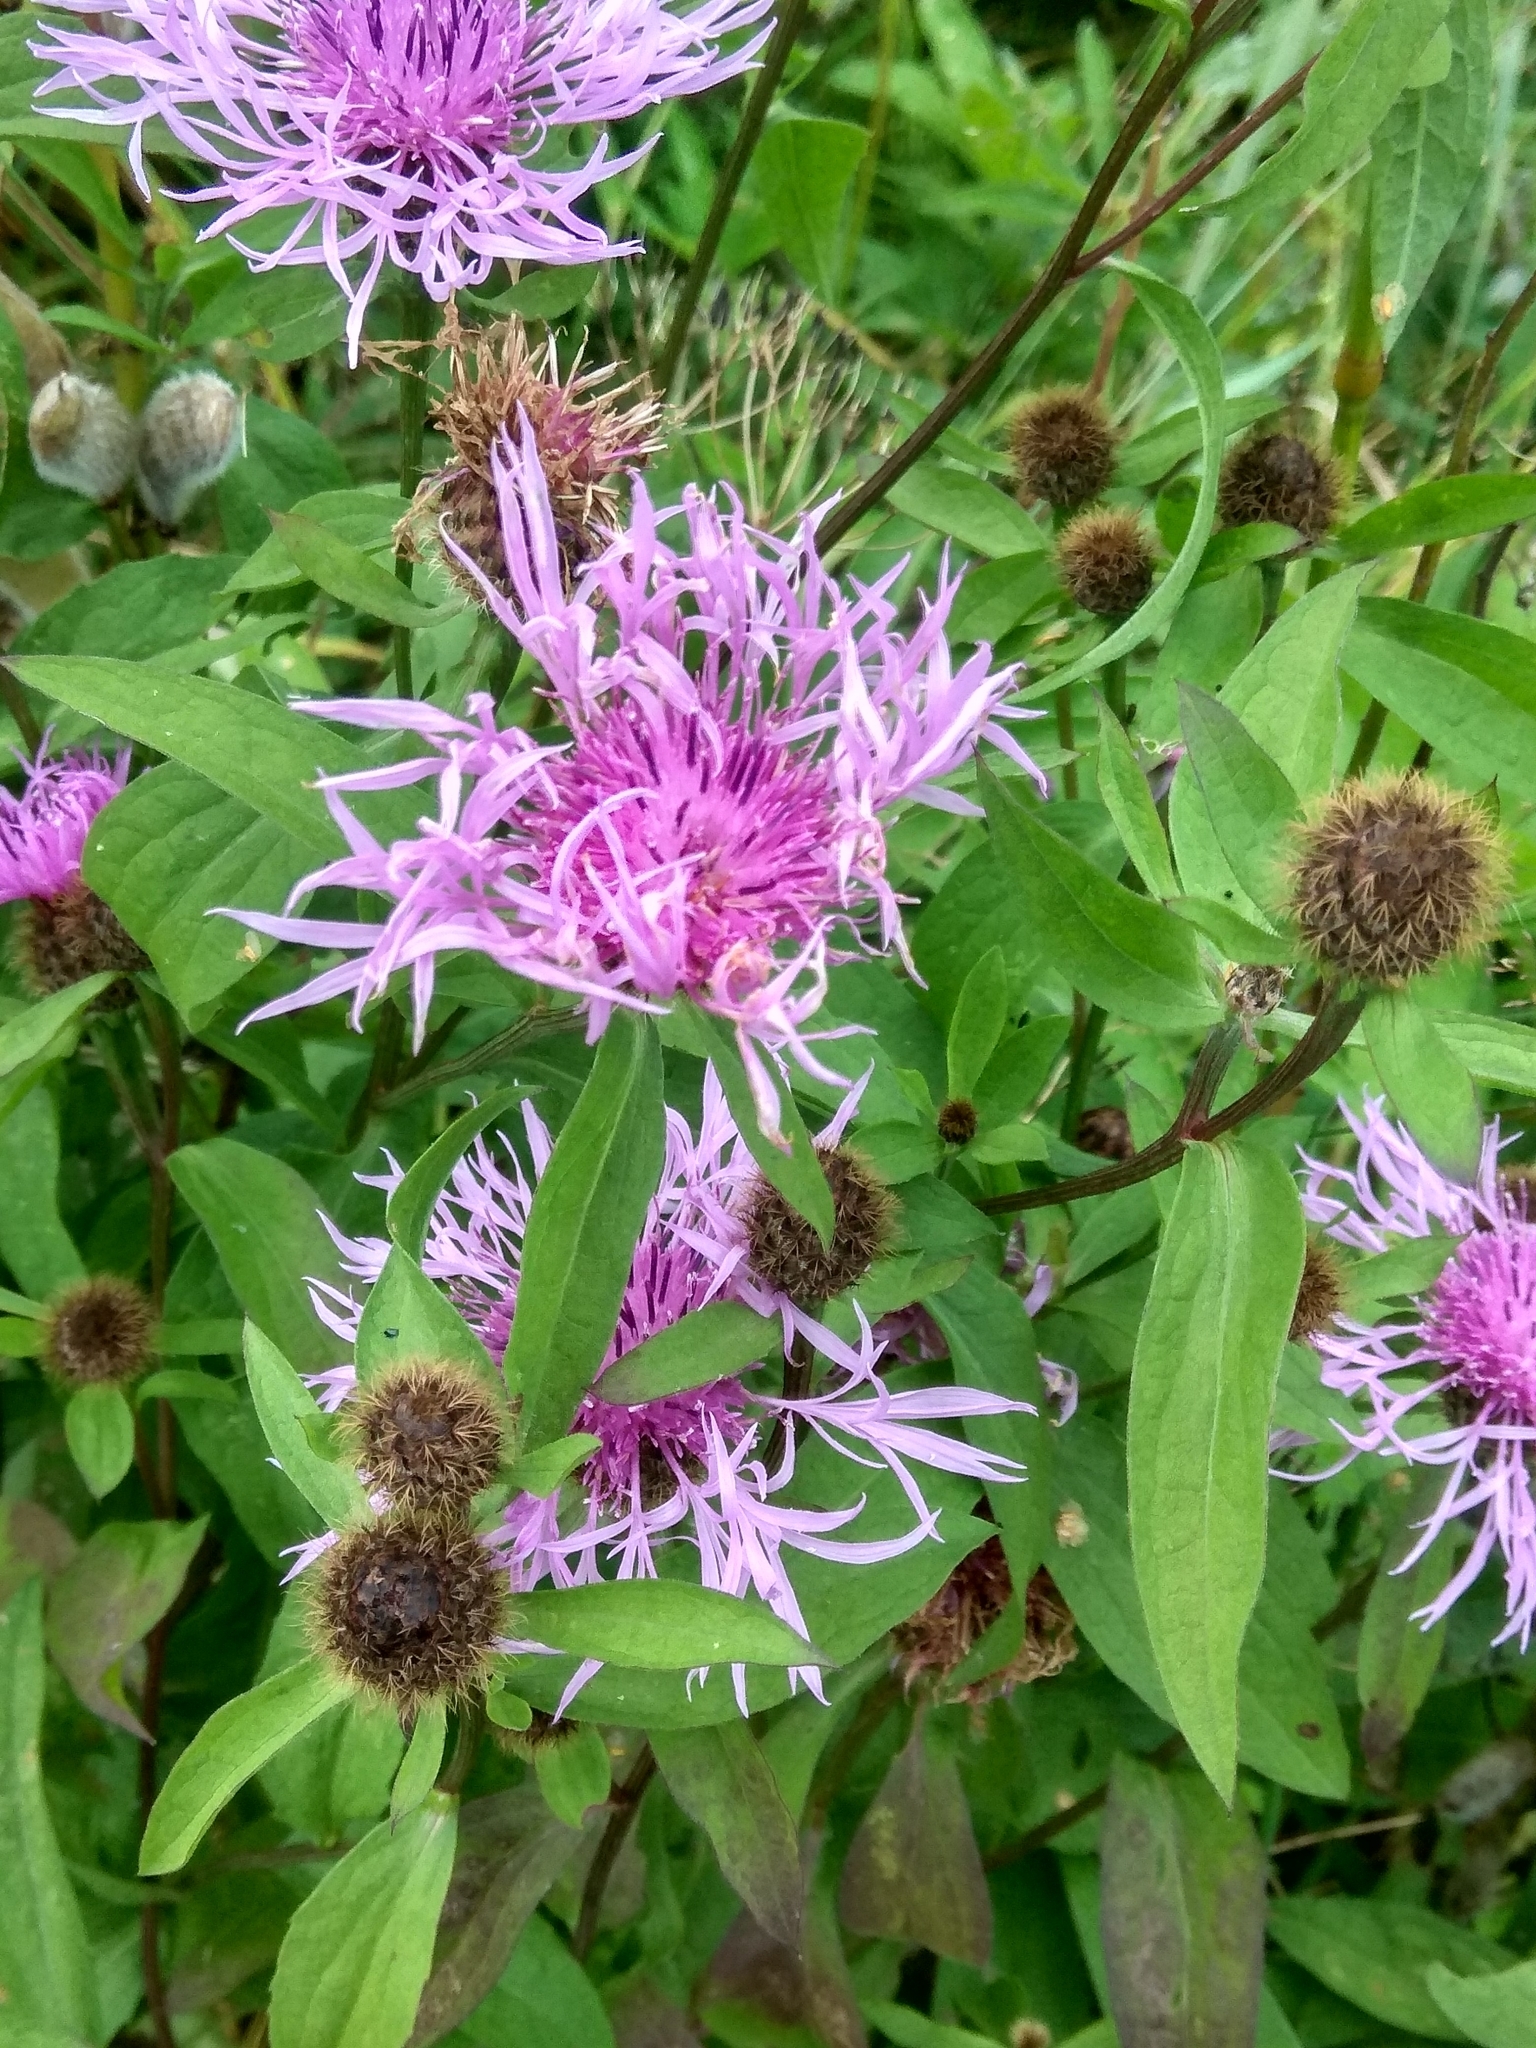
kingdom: Plantae
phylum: Tracheophyta
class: Magnoliopsida
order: Asterales
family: Asteraceae
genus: Centaurea
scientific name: Centaurea pseudophrygia
